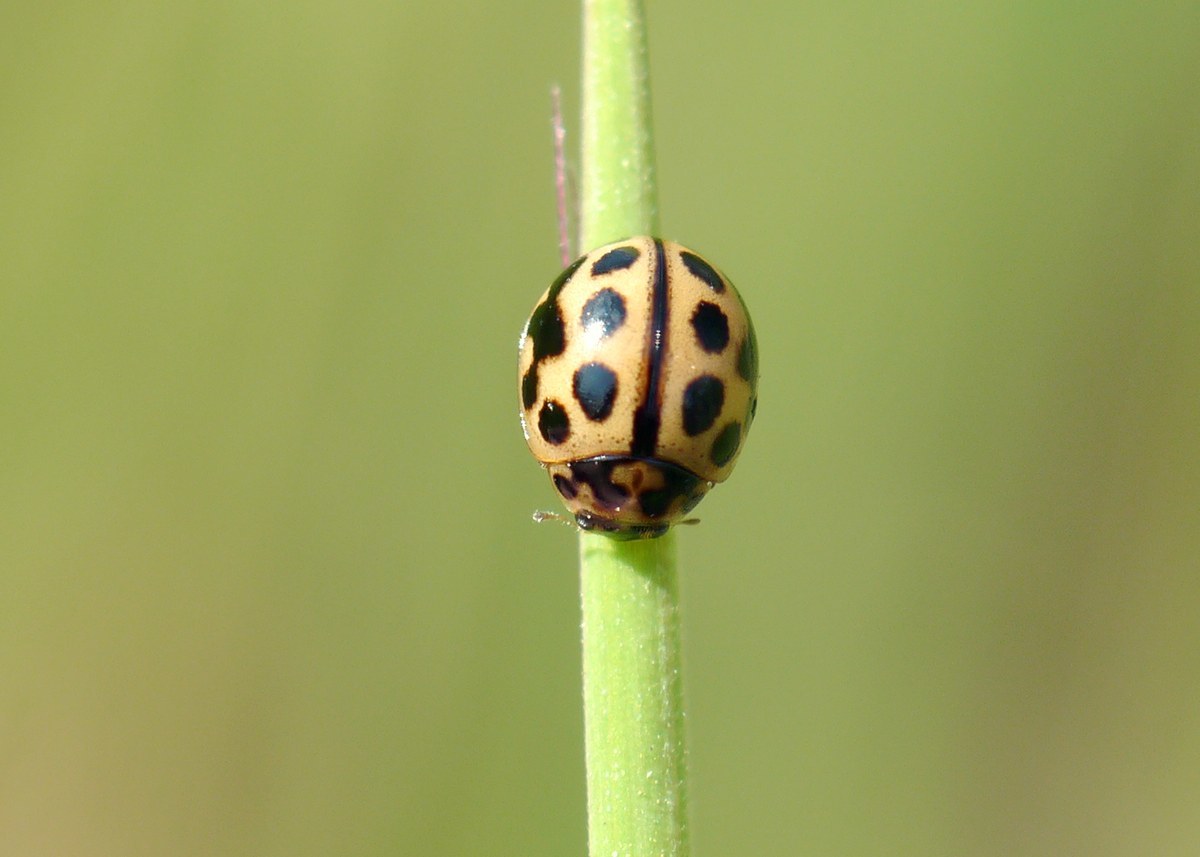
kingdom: Animalia
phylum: Arthropoda
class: Insecta
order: Coleoptera
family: Coccinellidae
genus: Tytthaspis
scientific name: Tytthaspis sedecimpunctata
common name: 16-spot ladybird
